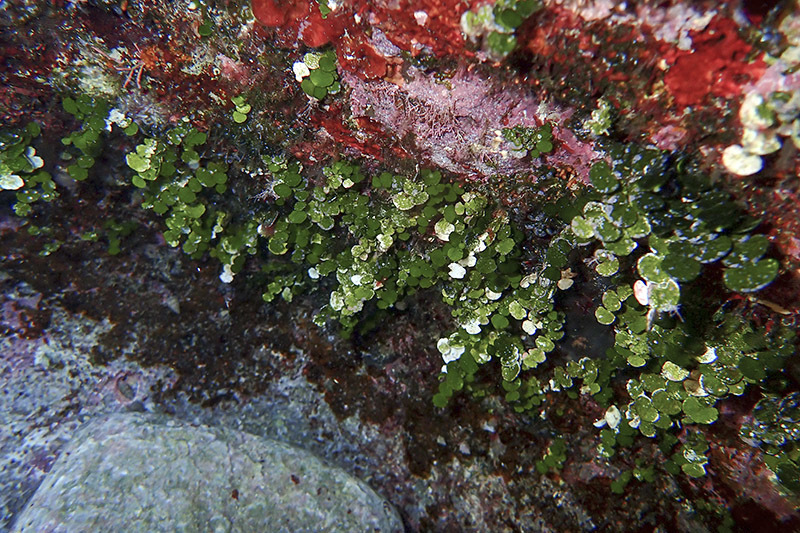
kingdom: Plantae
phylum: Chlorophyta
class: Ulvophyceae
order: Bryopsidales
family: Halimedaceae
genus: Halimeda
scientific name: Halimeda tuna
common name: Stalked lettuce leaf algae
